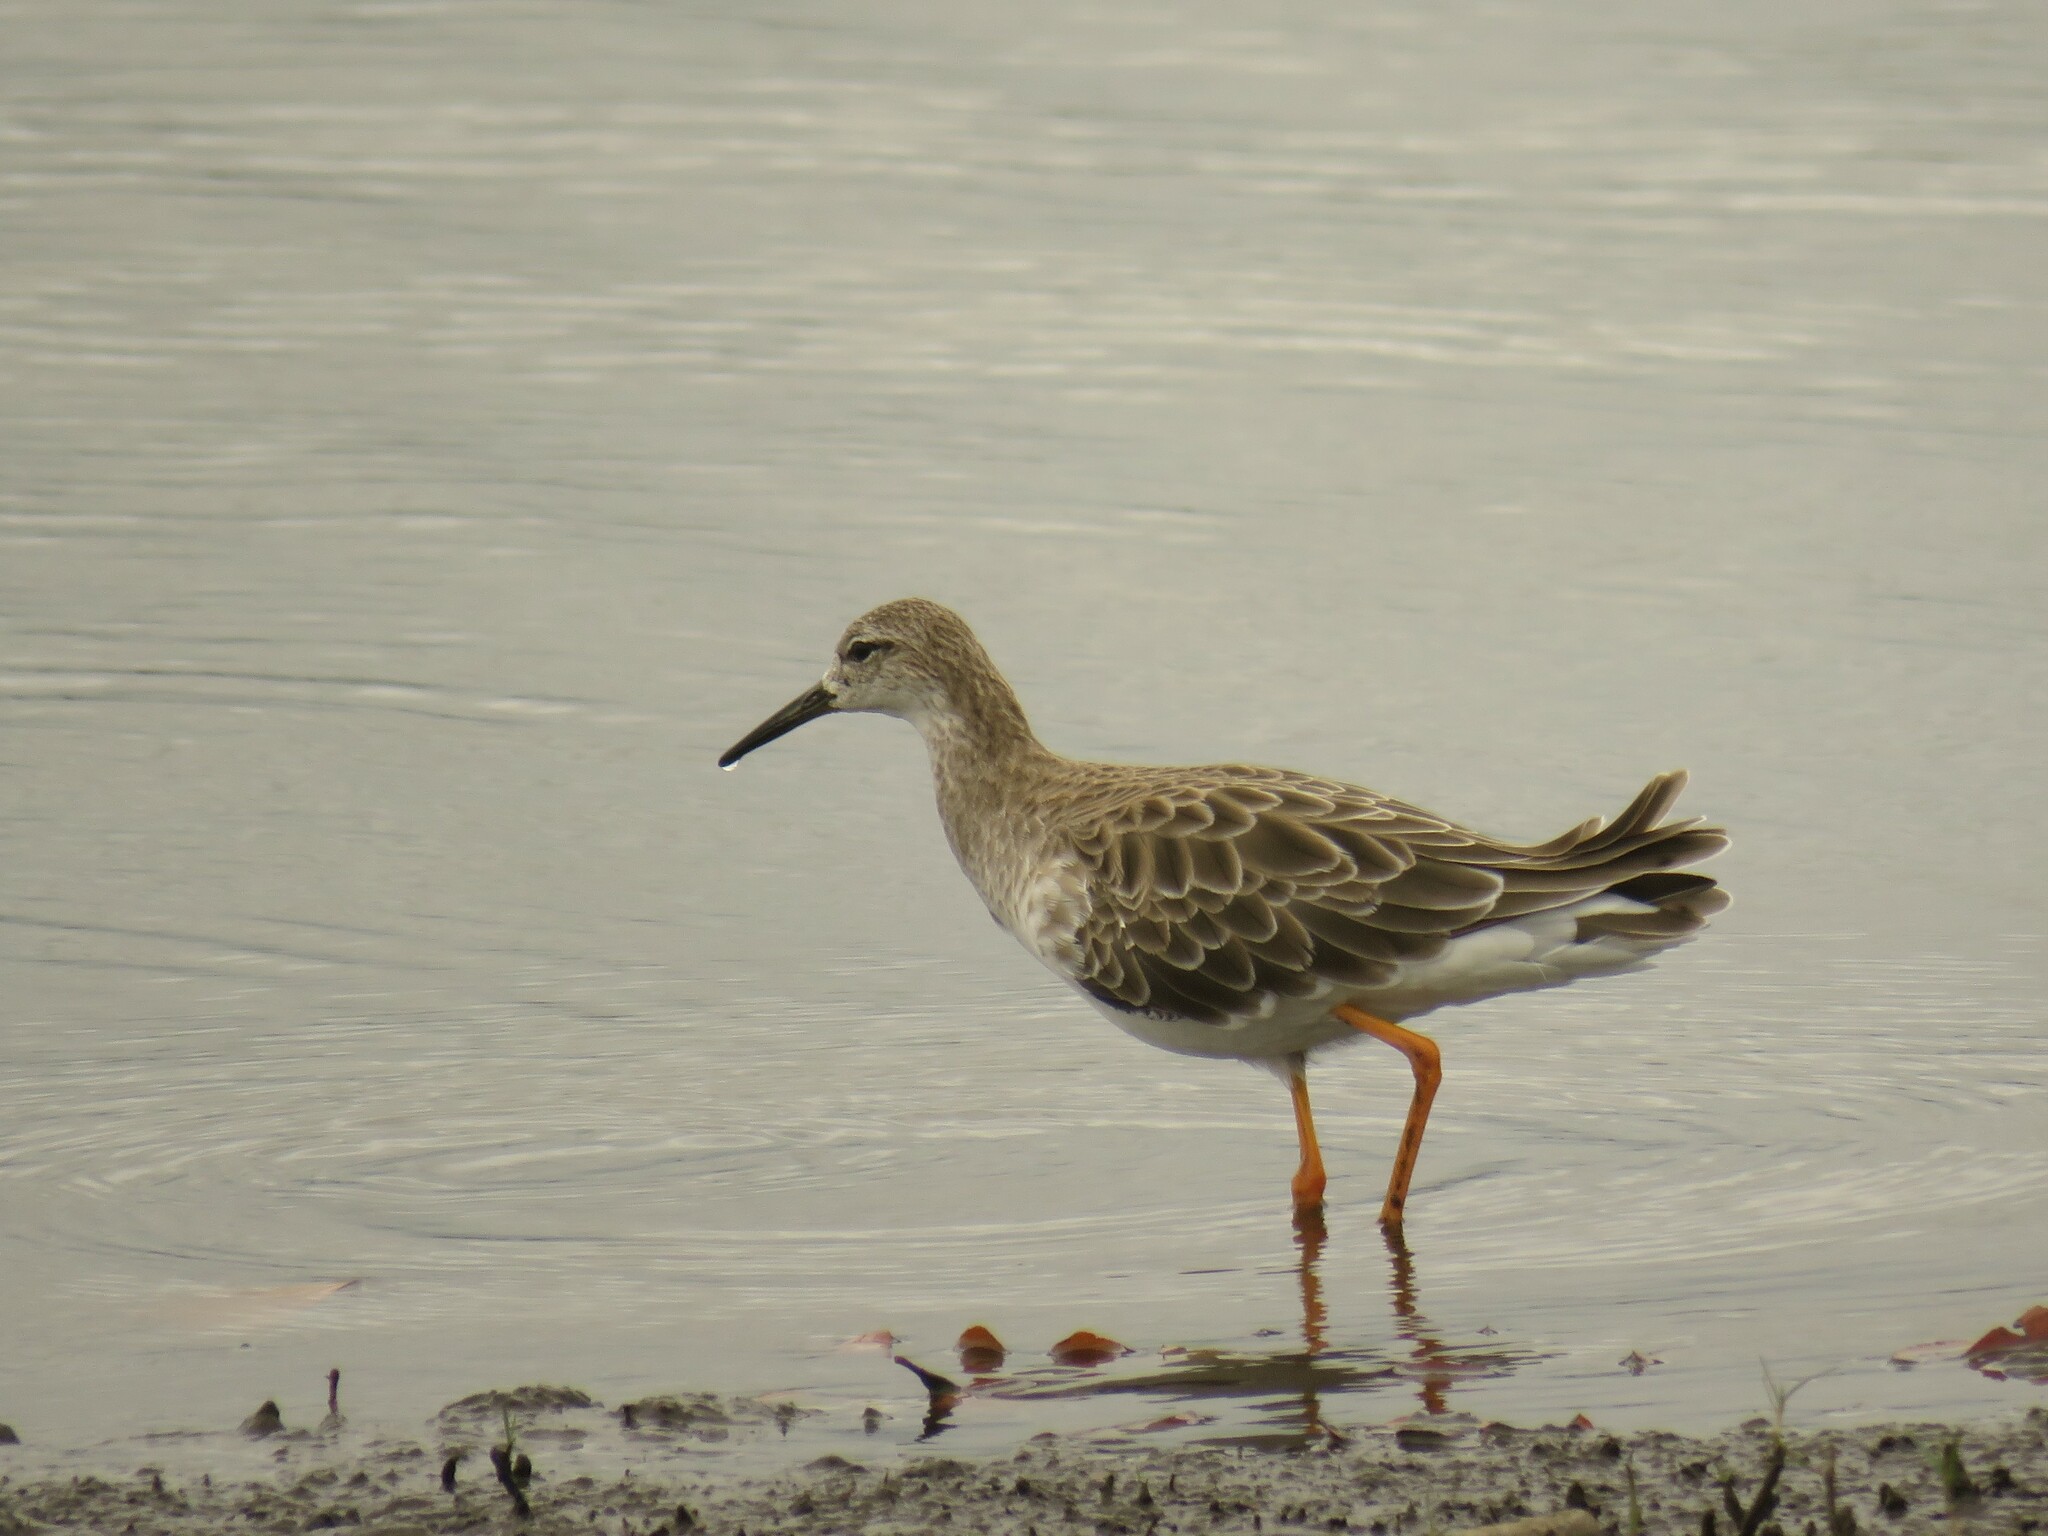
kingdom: Animalia
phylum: Chordata
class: Aves
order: Charadriiformes
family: Scolopacidae
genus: Calidris
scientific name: Calidris pugnax
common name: Ruff
